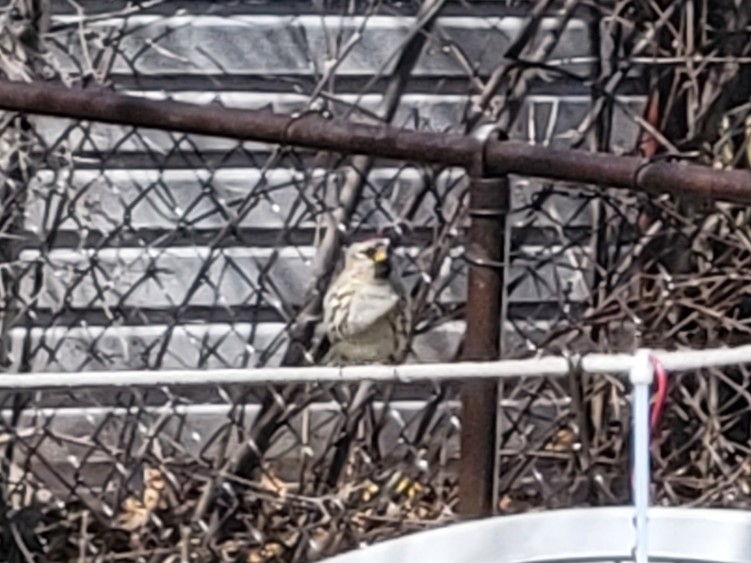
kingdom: Animalia
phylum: Chordata
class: Aves
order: Passeriformes
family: Fringillidae
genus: Acanthis
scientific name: Acanthis flammea
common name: Common redpoll
